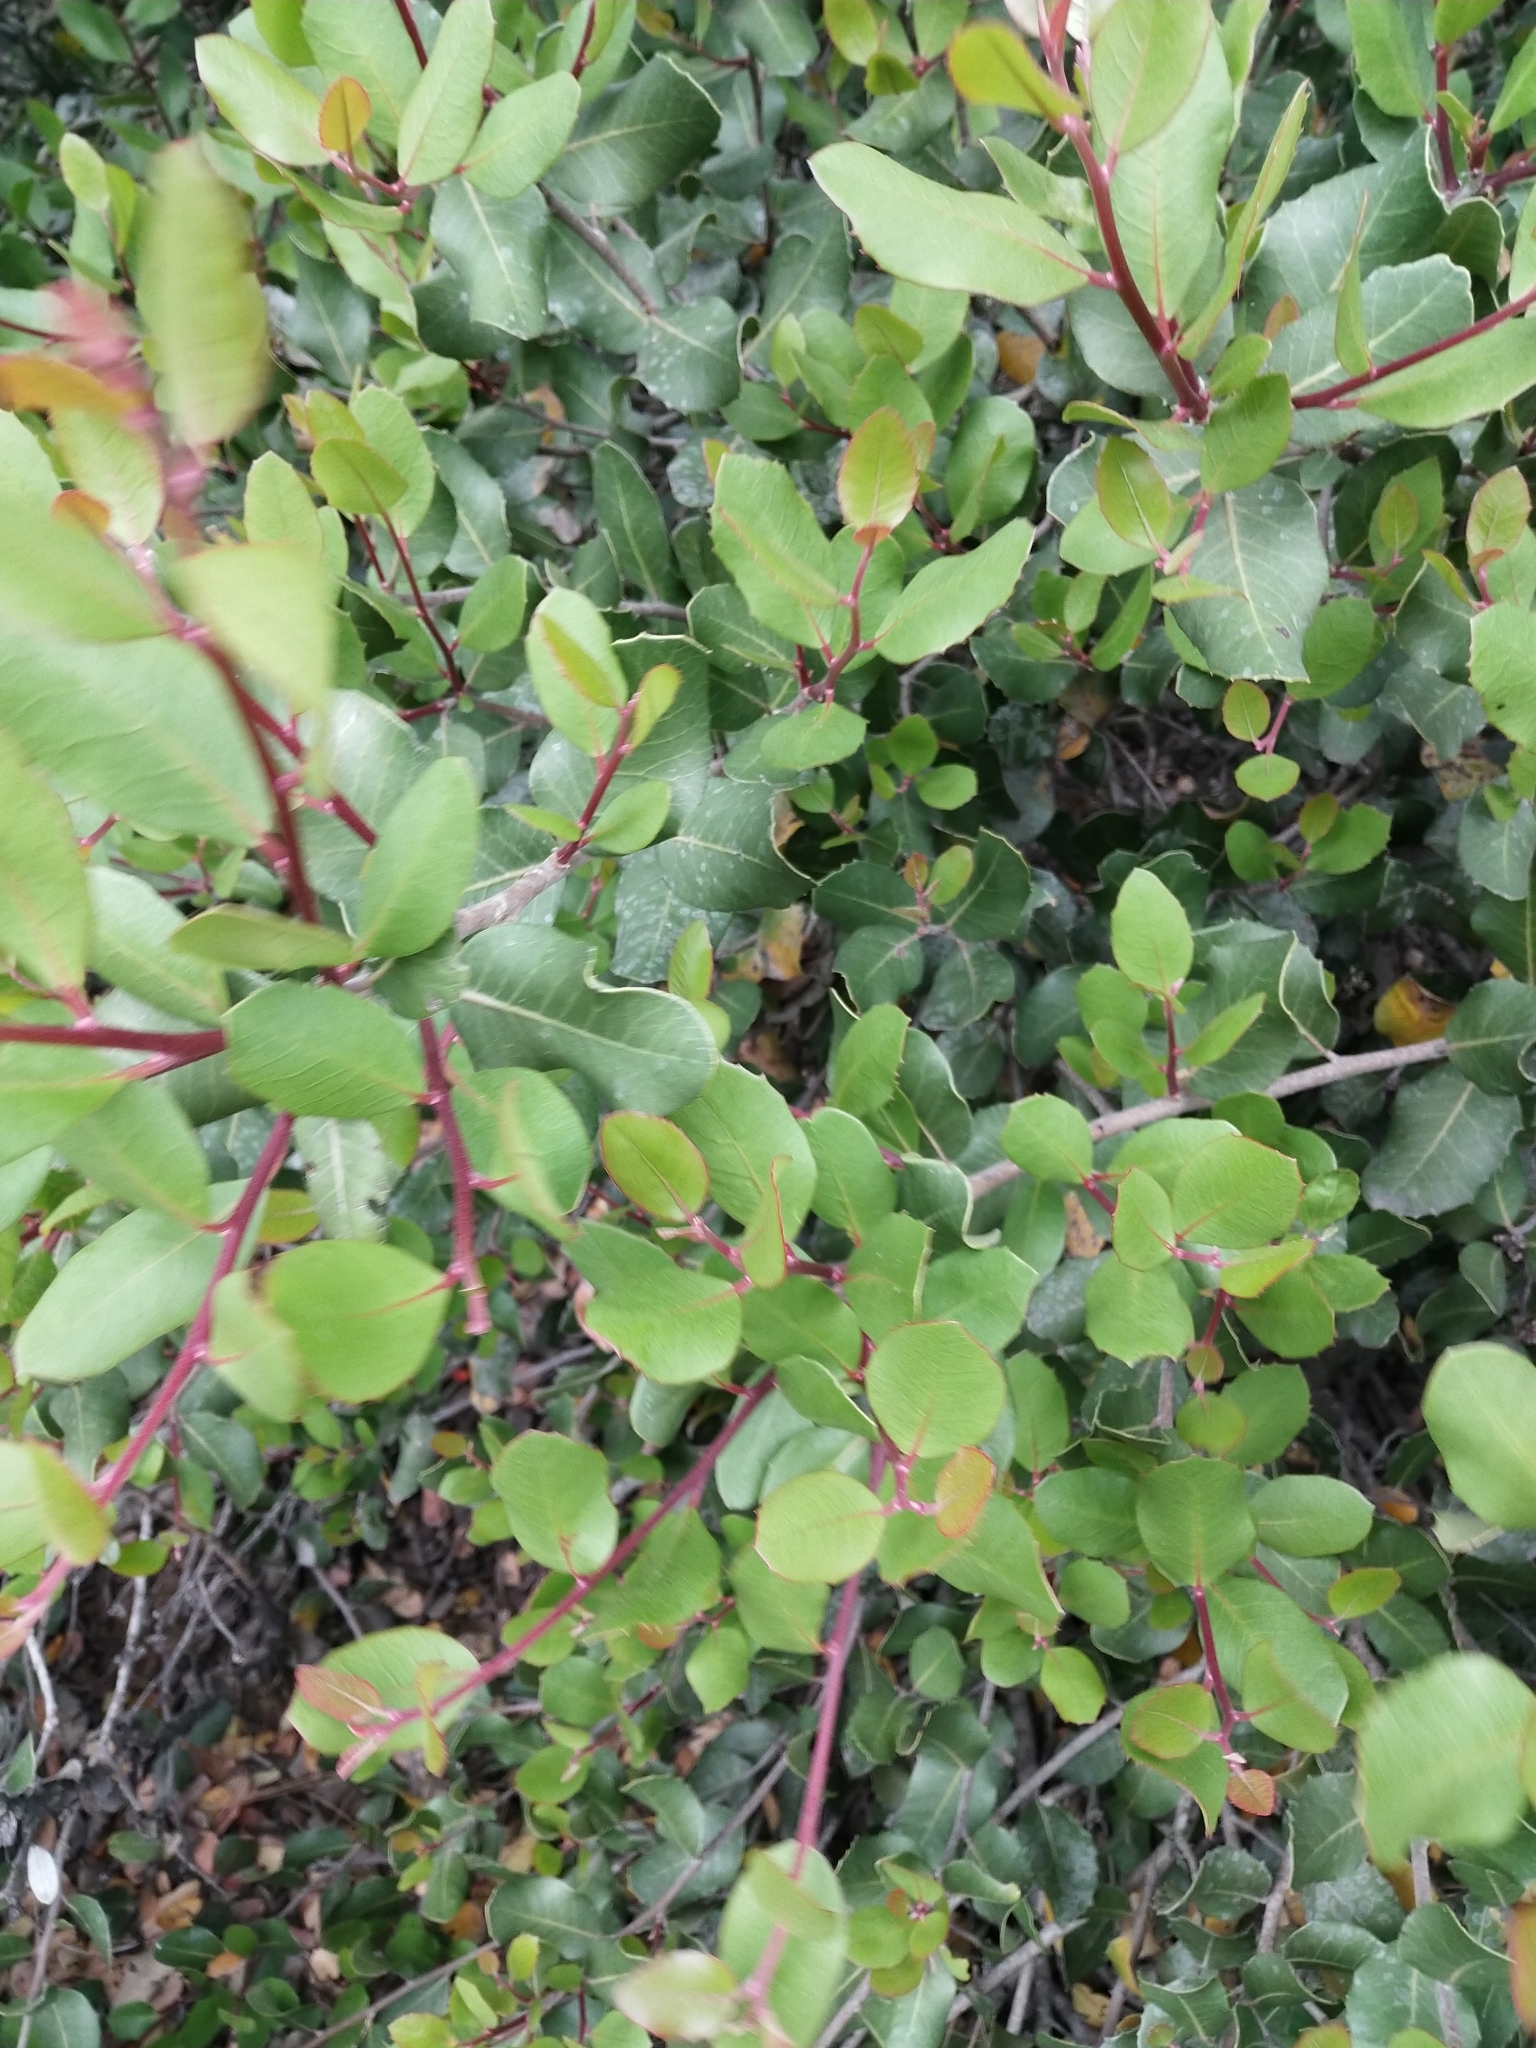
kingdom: Plantae
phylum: Tracheophyta
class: Magnoliopsida
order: Sapindales
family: Anacardiaceae
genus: Rhus
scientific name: Rhus integrifolia
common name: Lemonade sumac
